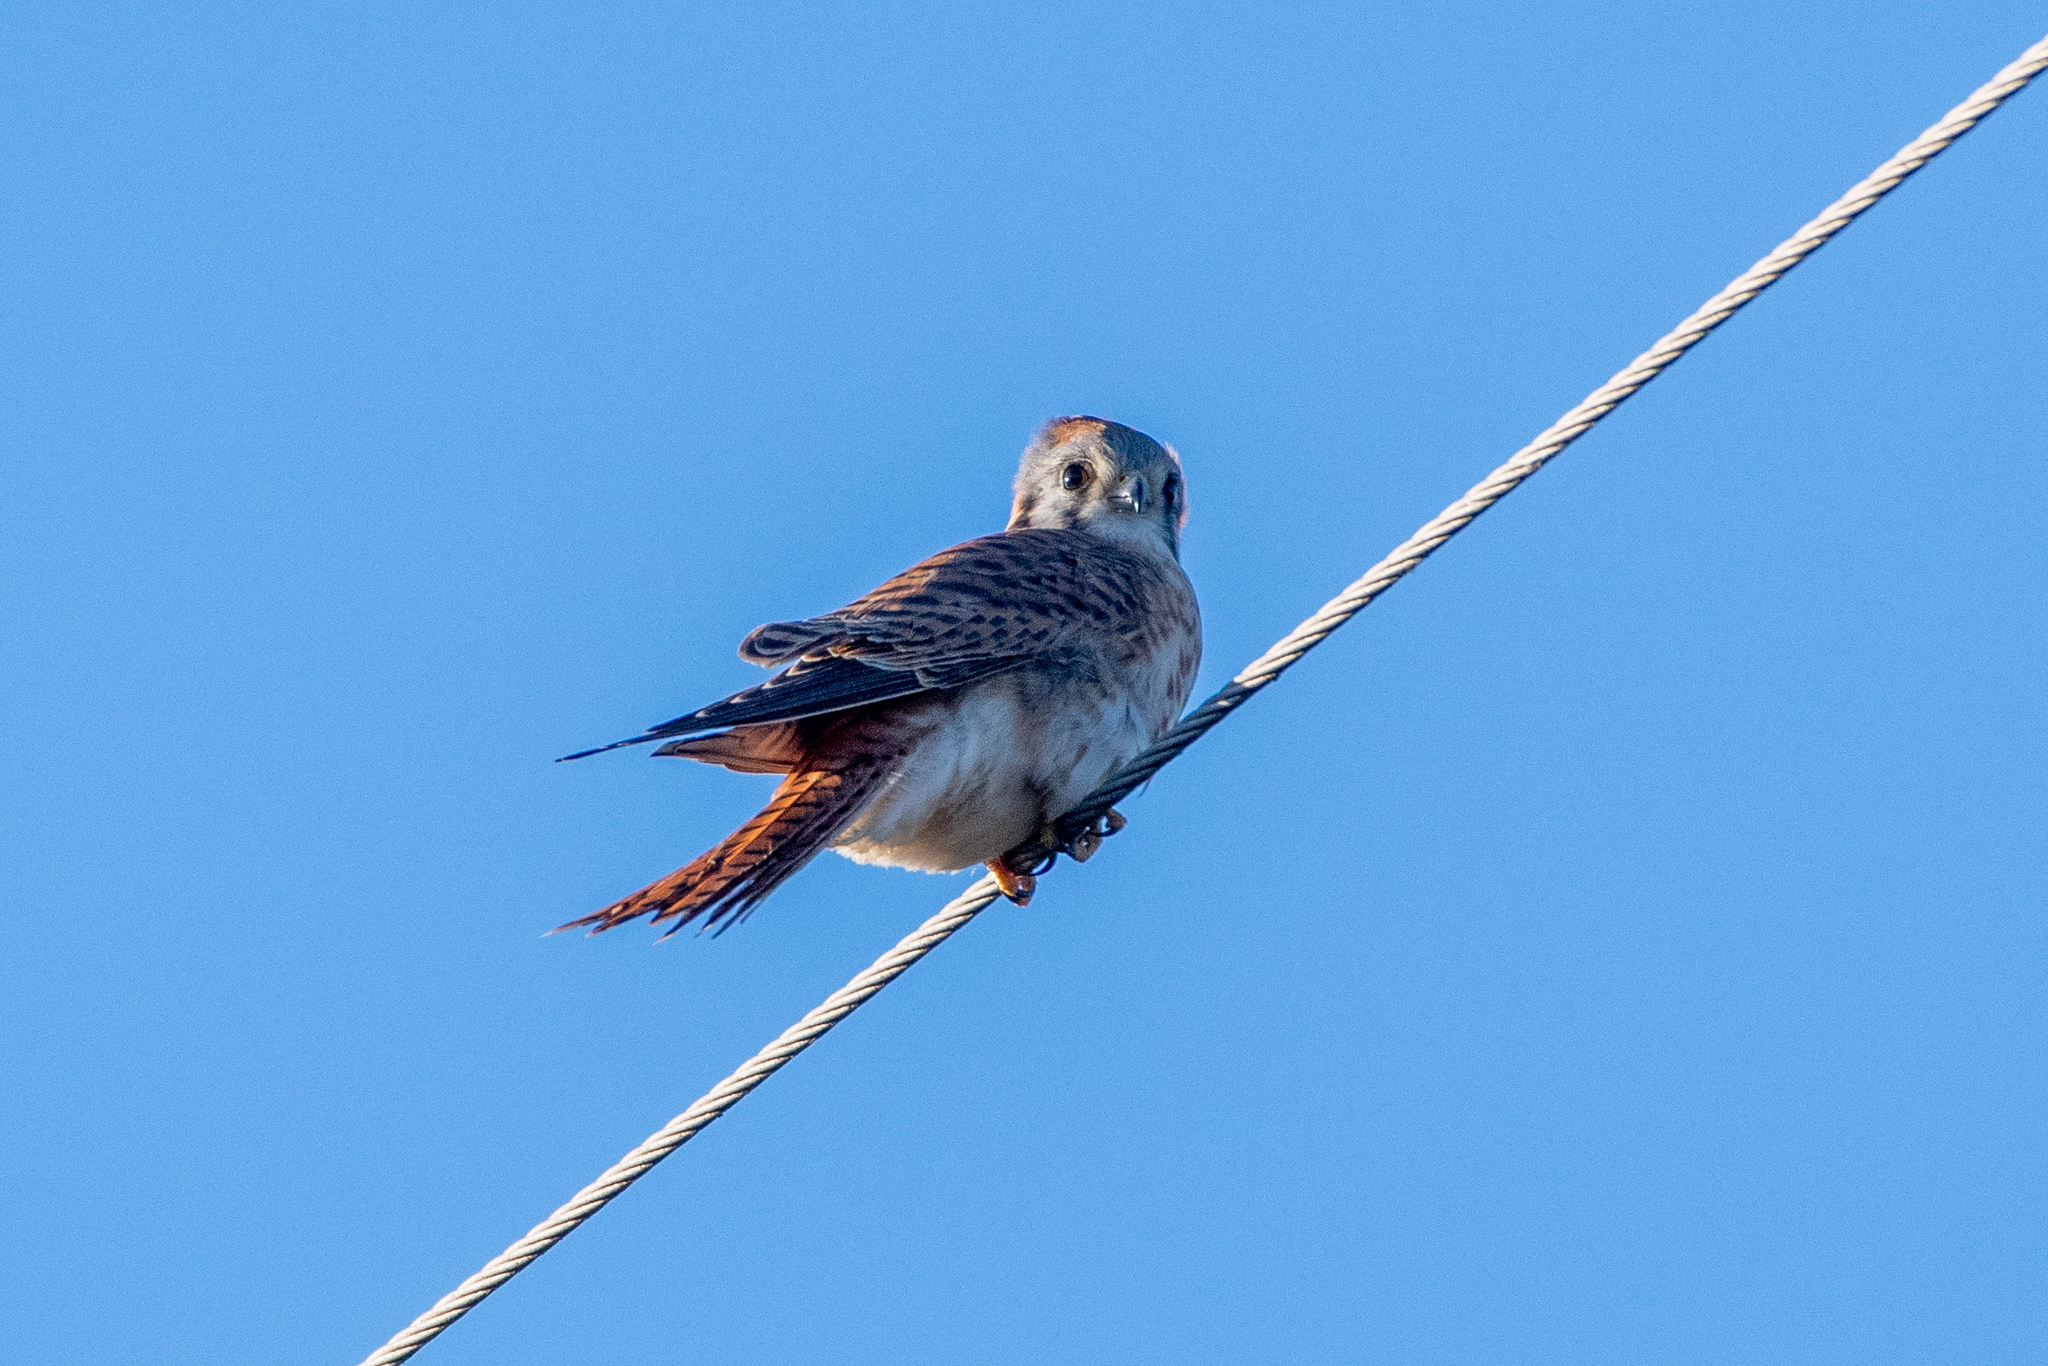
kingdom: Animalia
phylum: Chordata
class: Aves
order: Falconiformes
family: Falconidae
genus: Falco
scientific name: Falco sparverius
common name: American kestrel
